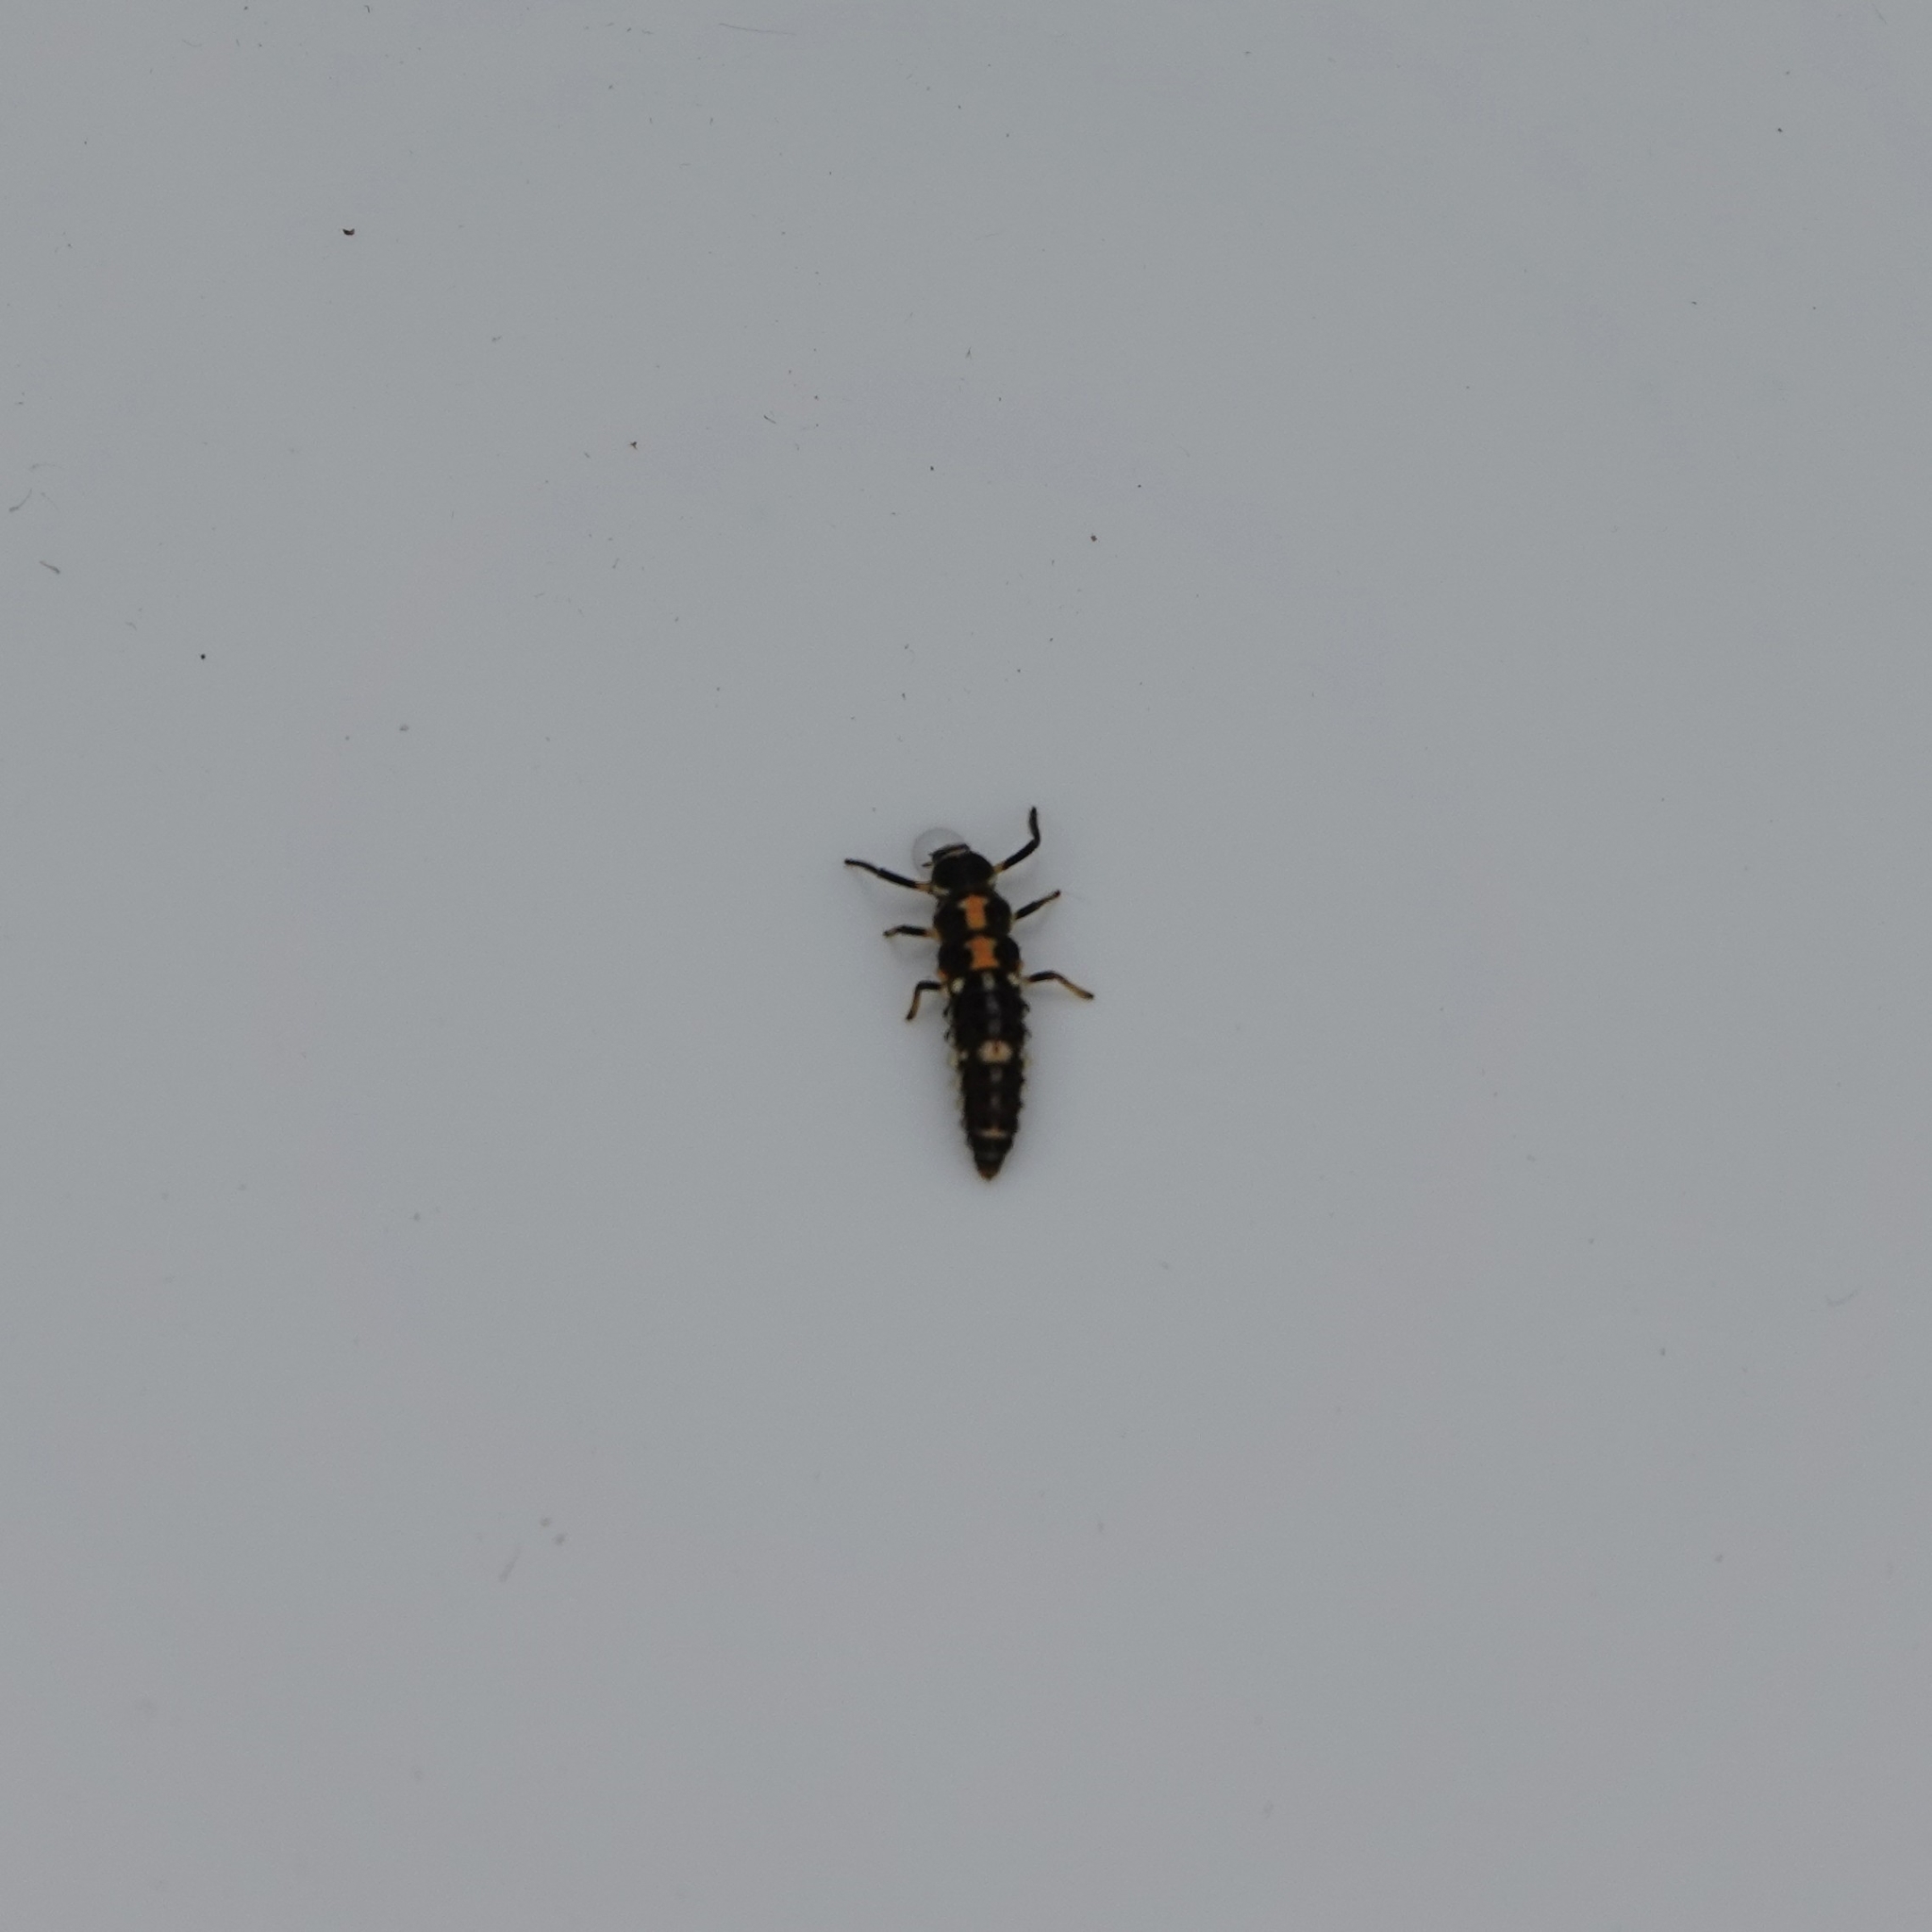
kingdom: Animalia
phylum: Arthropoda
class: Insecta
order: Coleoptera
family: Coccinellidae
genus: Propylaea
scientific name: Propylaea quatuordecimpunctata
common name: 14-spotted ladybird beetle
